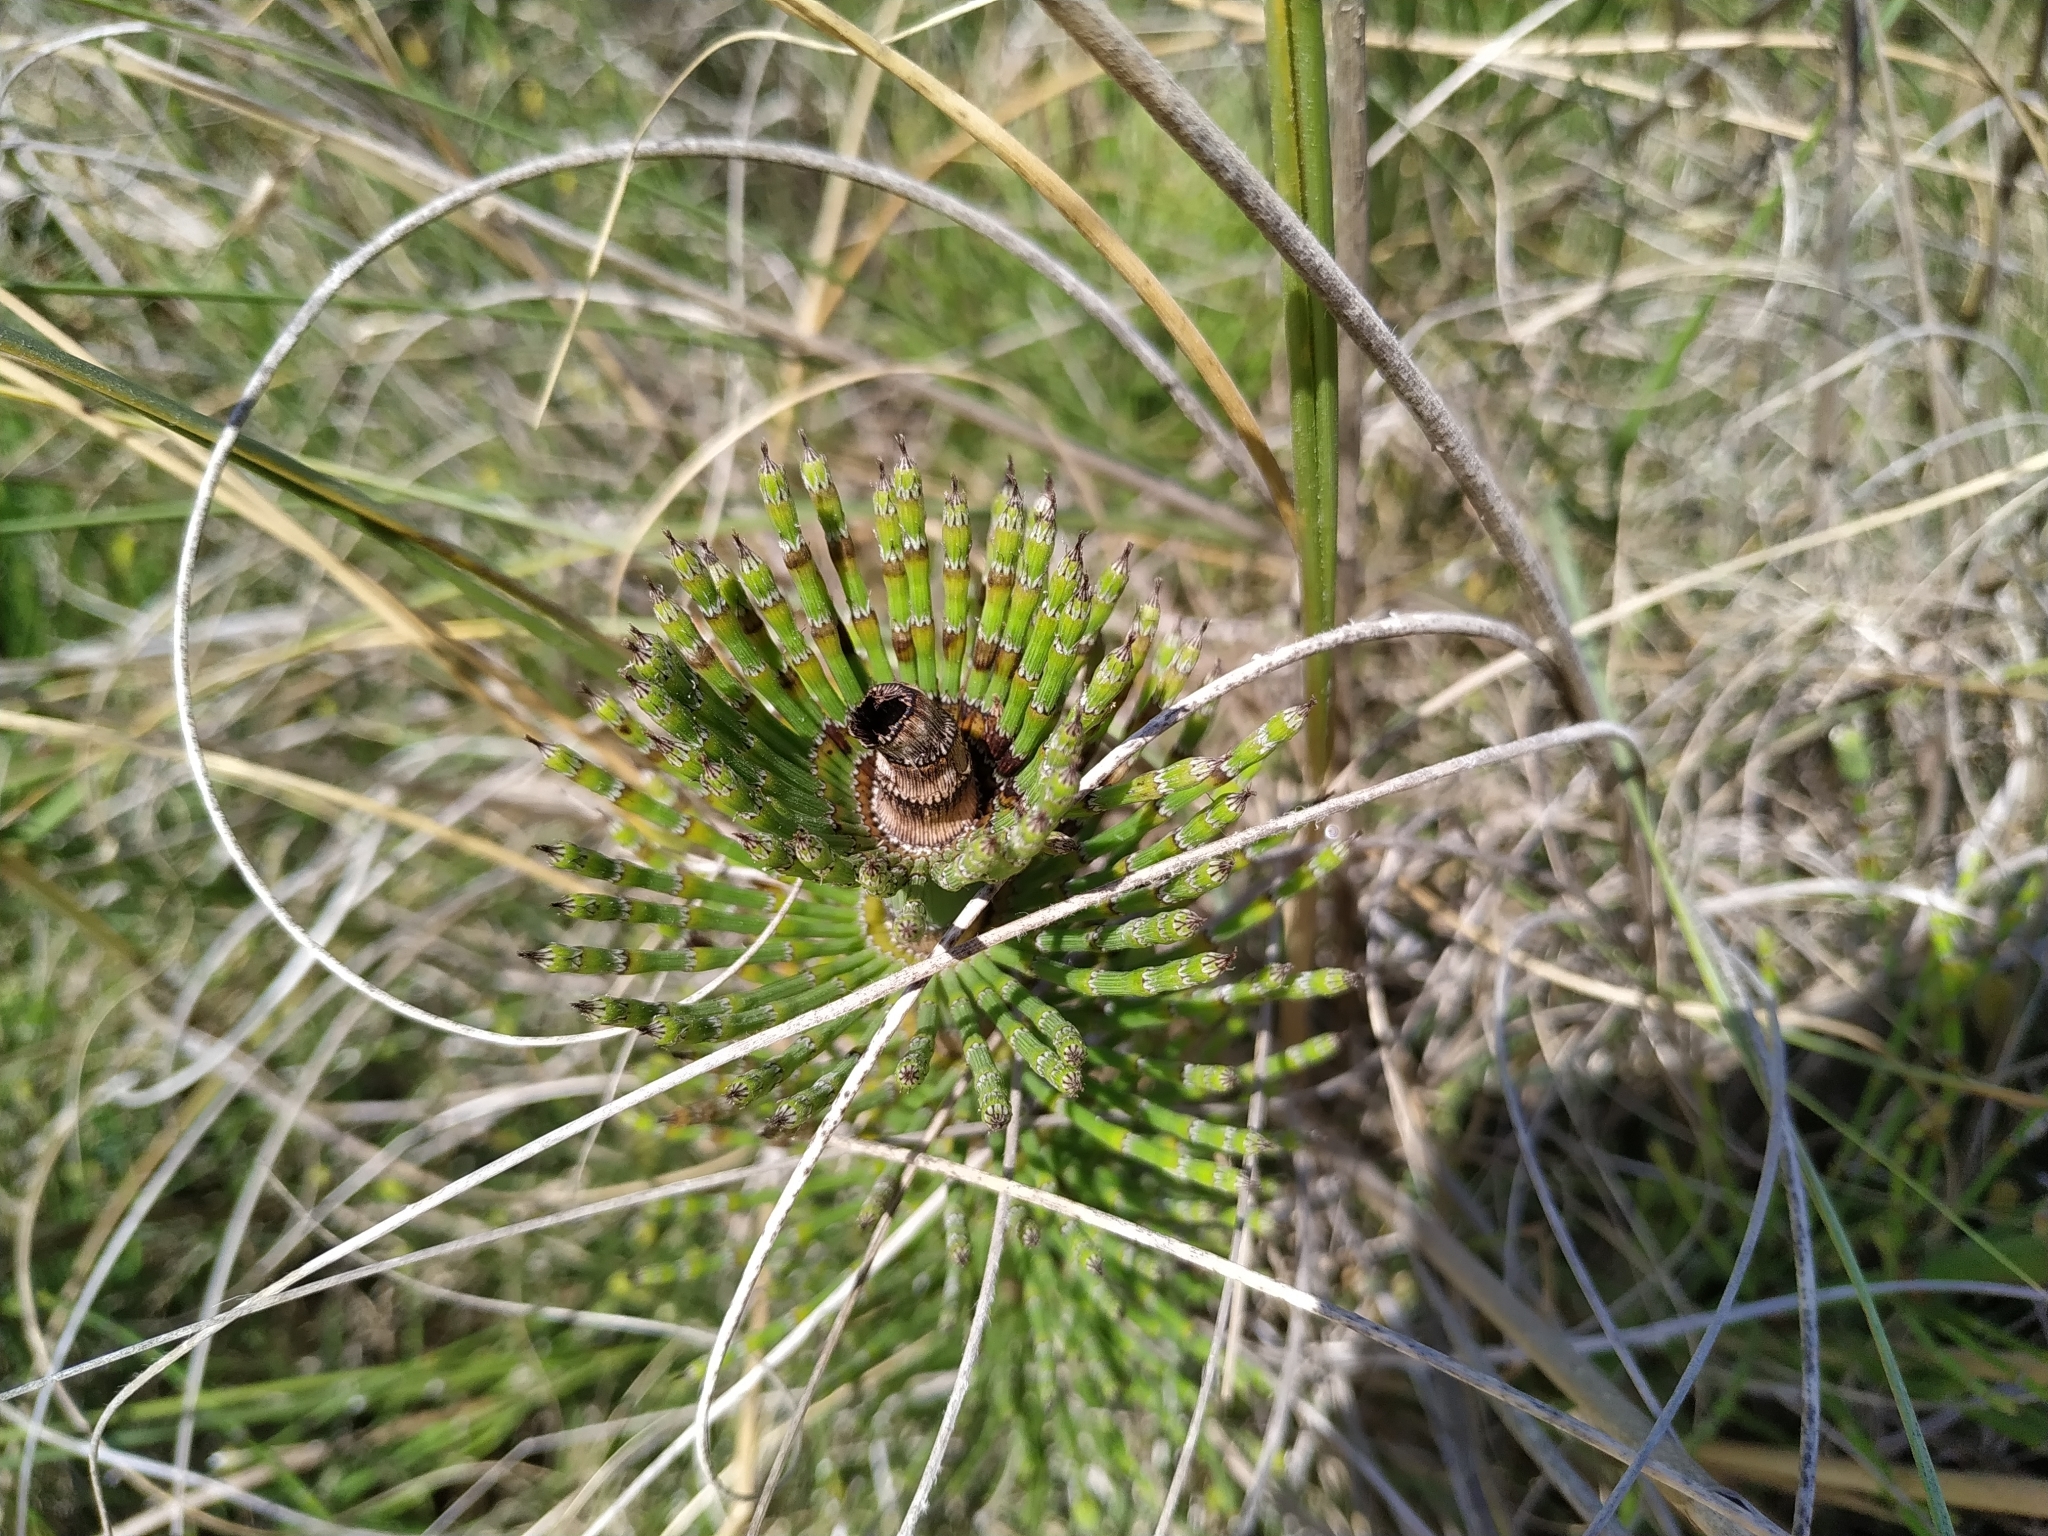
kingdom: Plantae
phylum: Tracheophyta
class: Polypodiopsida
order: Equisetales
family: Equisetaceae
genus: Equisetum
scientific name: Equisetum giganteum
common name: Giant horsetail
